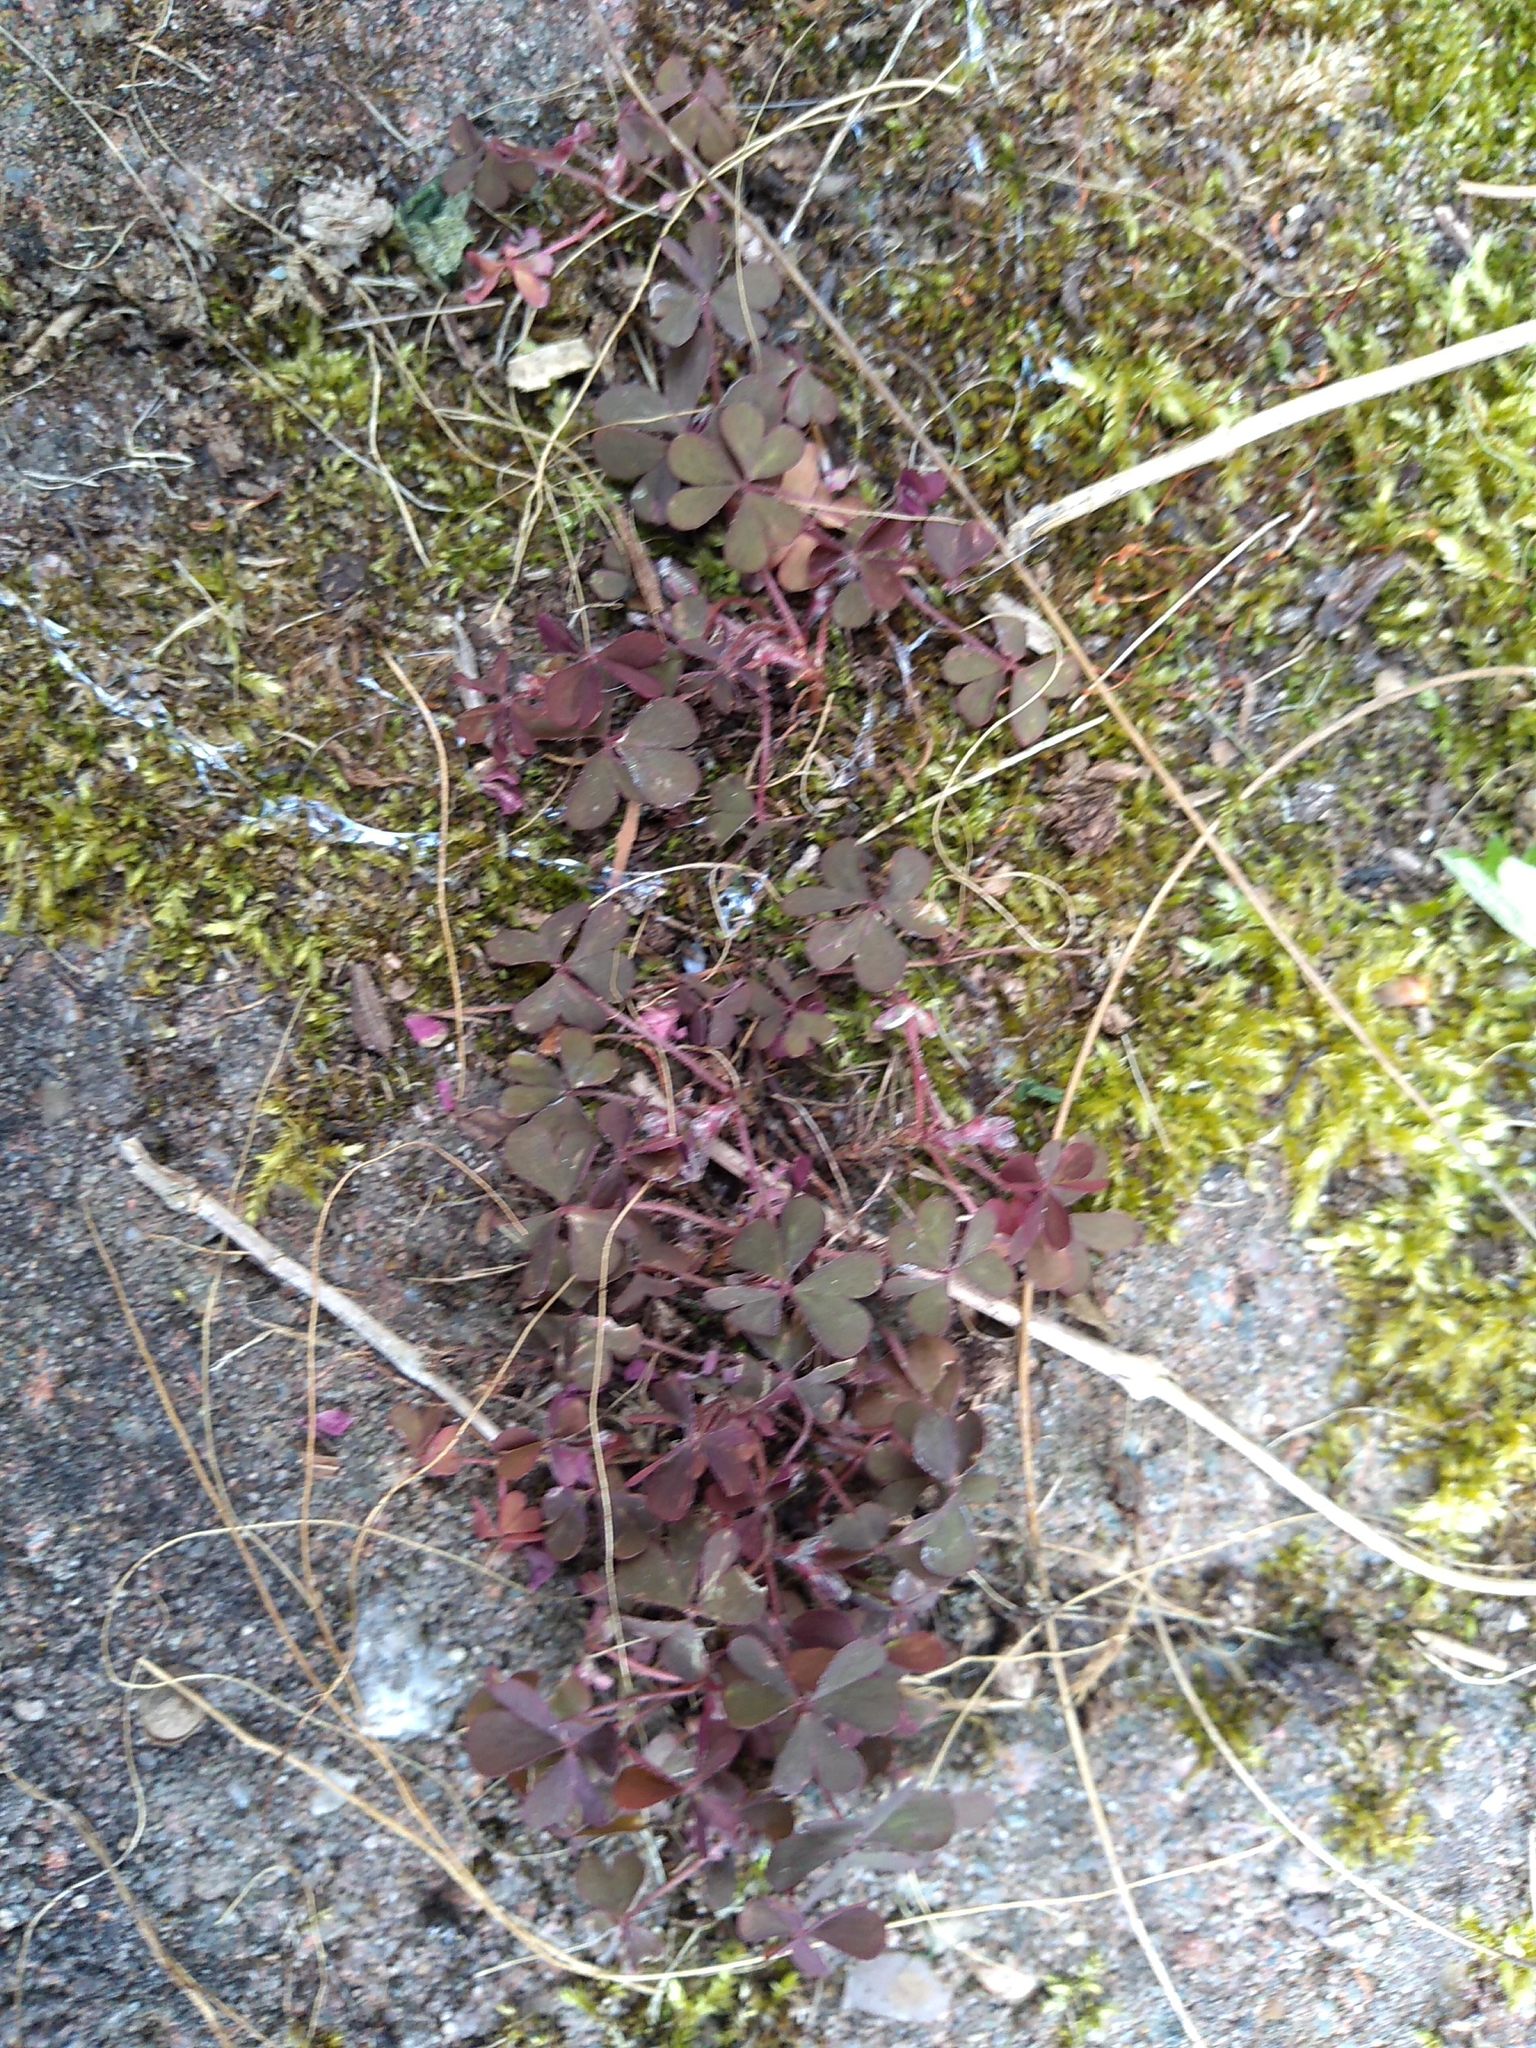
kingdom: Plantae
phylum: Tracheophyta
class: Magnoliopsida
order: Oxalidales
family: Oxalidaceae
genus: Oxalis
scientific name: Oxalis corniculata
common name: Procumbent yellow-sorrel
